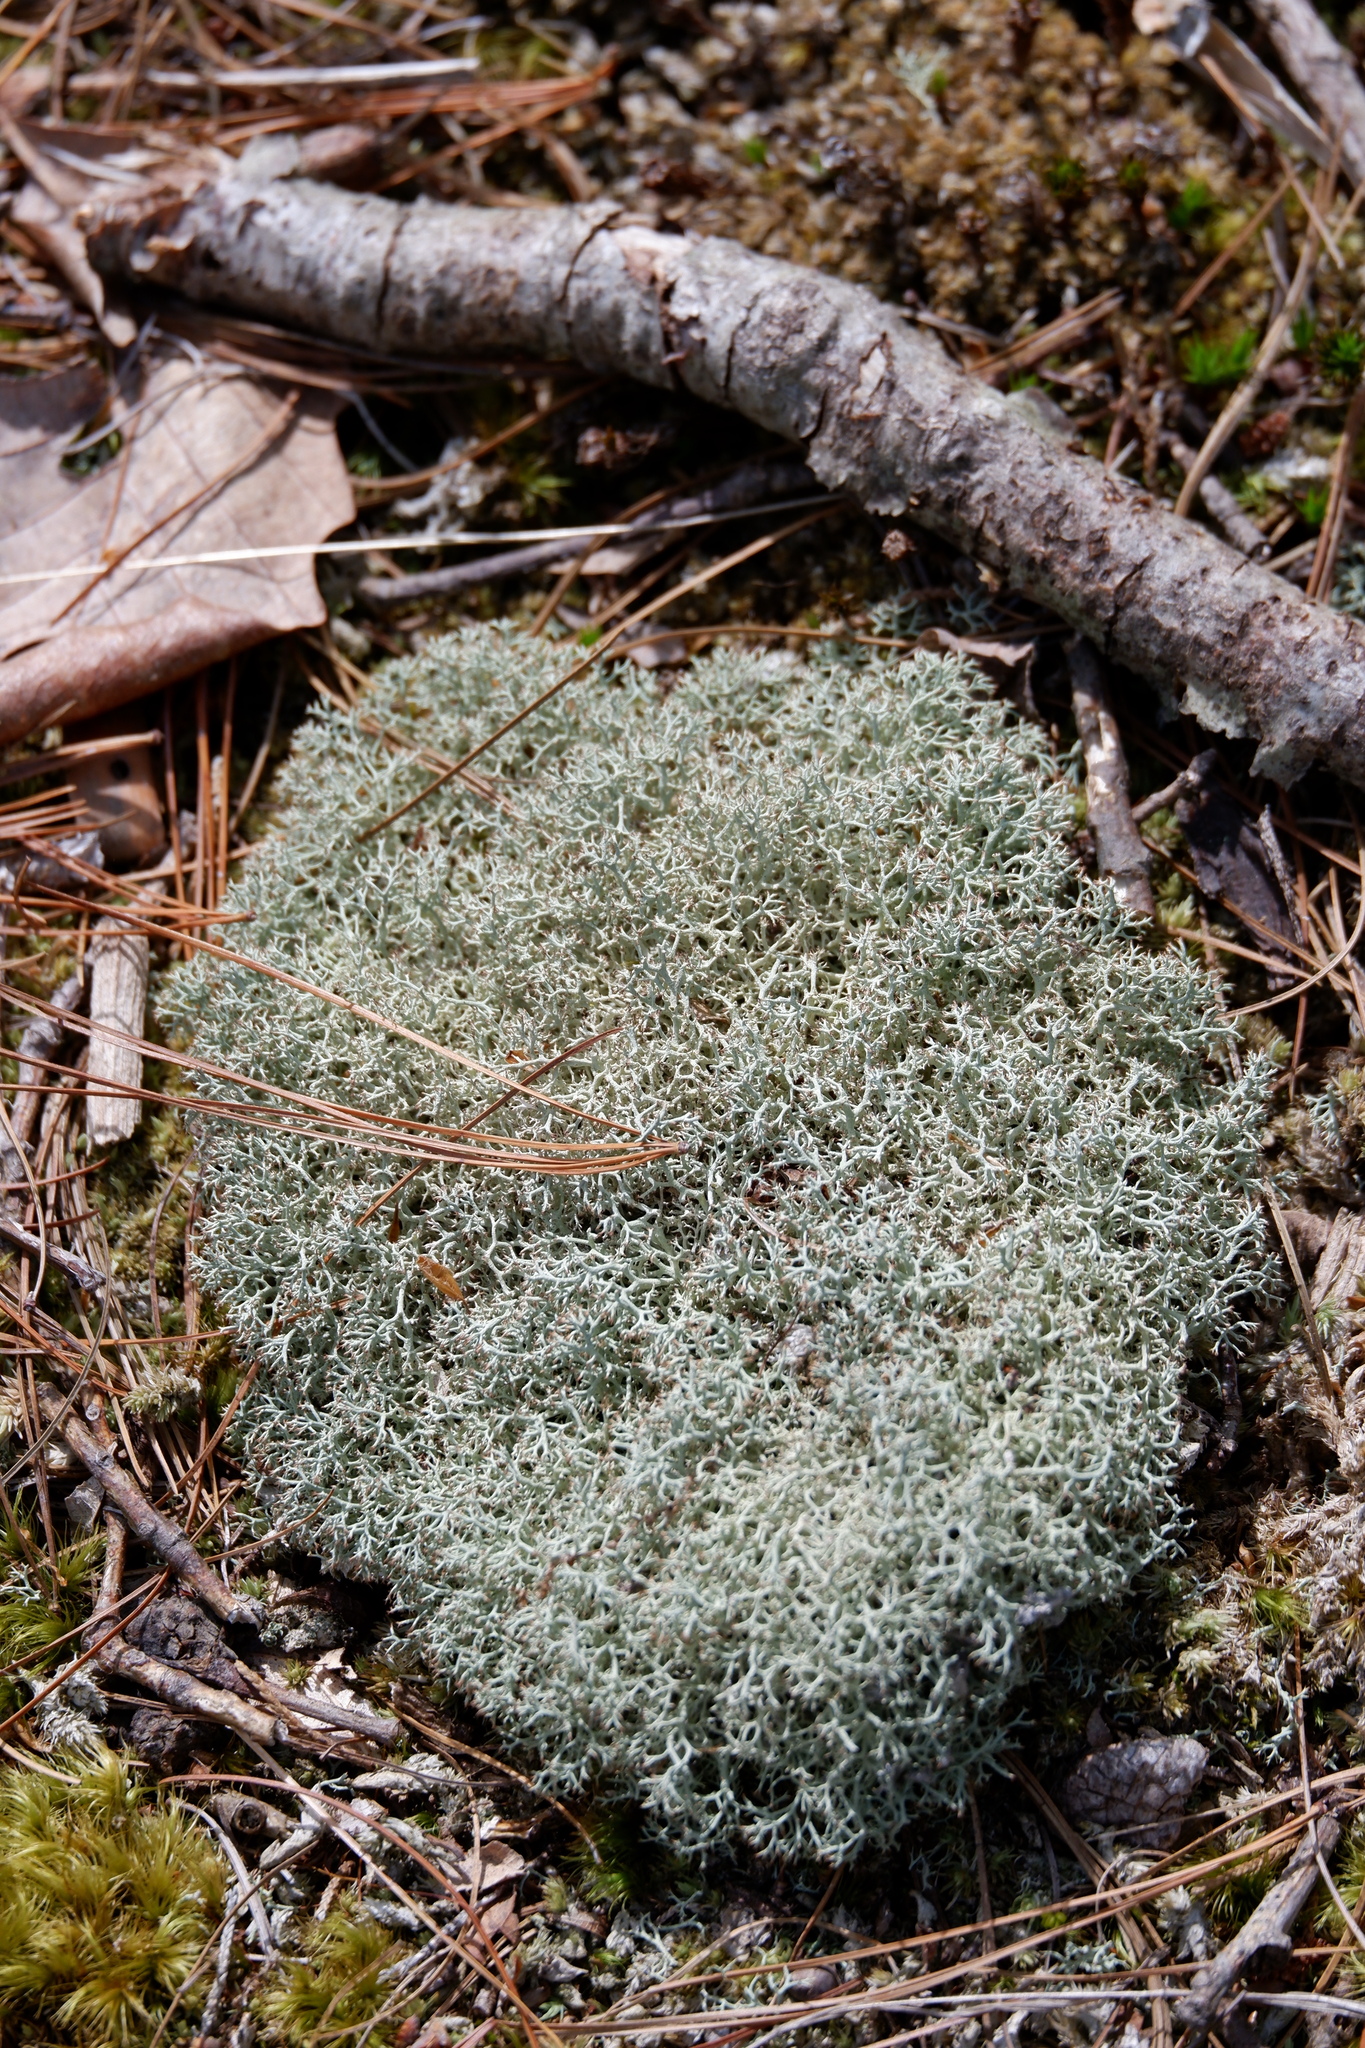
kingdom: Fungi
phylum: Ascomycota
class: Lecanoromycetes
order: Lecanorales
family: Cladoniaceae
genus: Cladonia
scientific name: Cladonia subtenuis
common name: Dixie reindeer lichen
